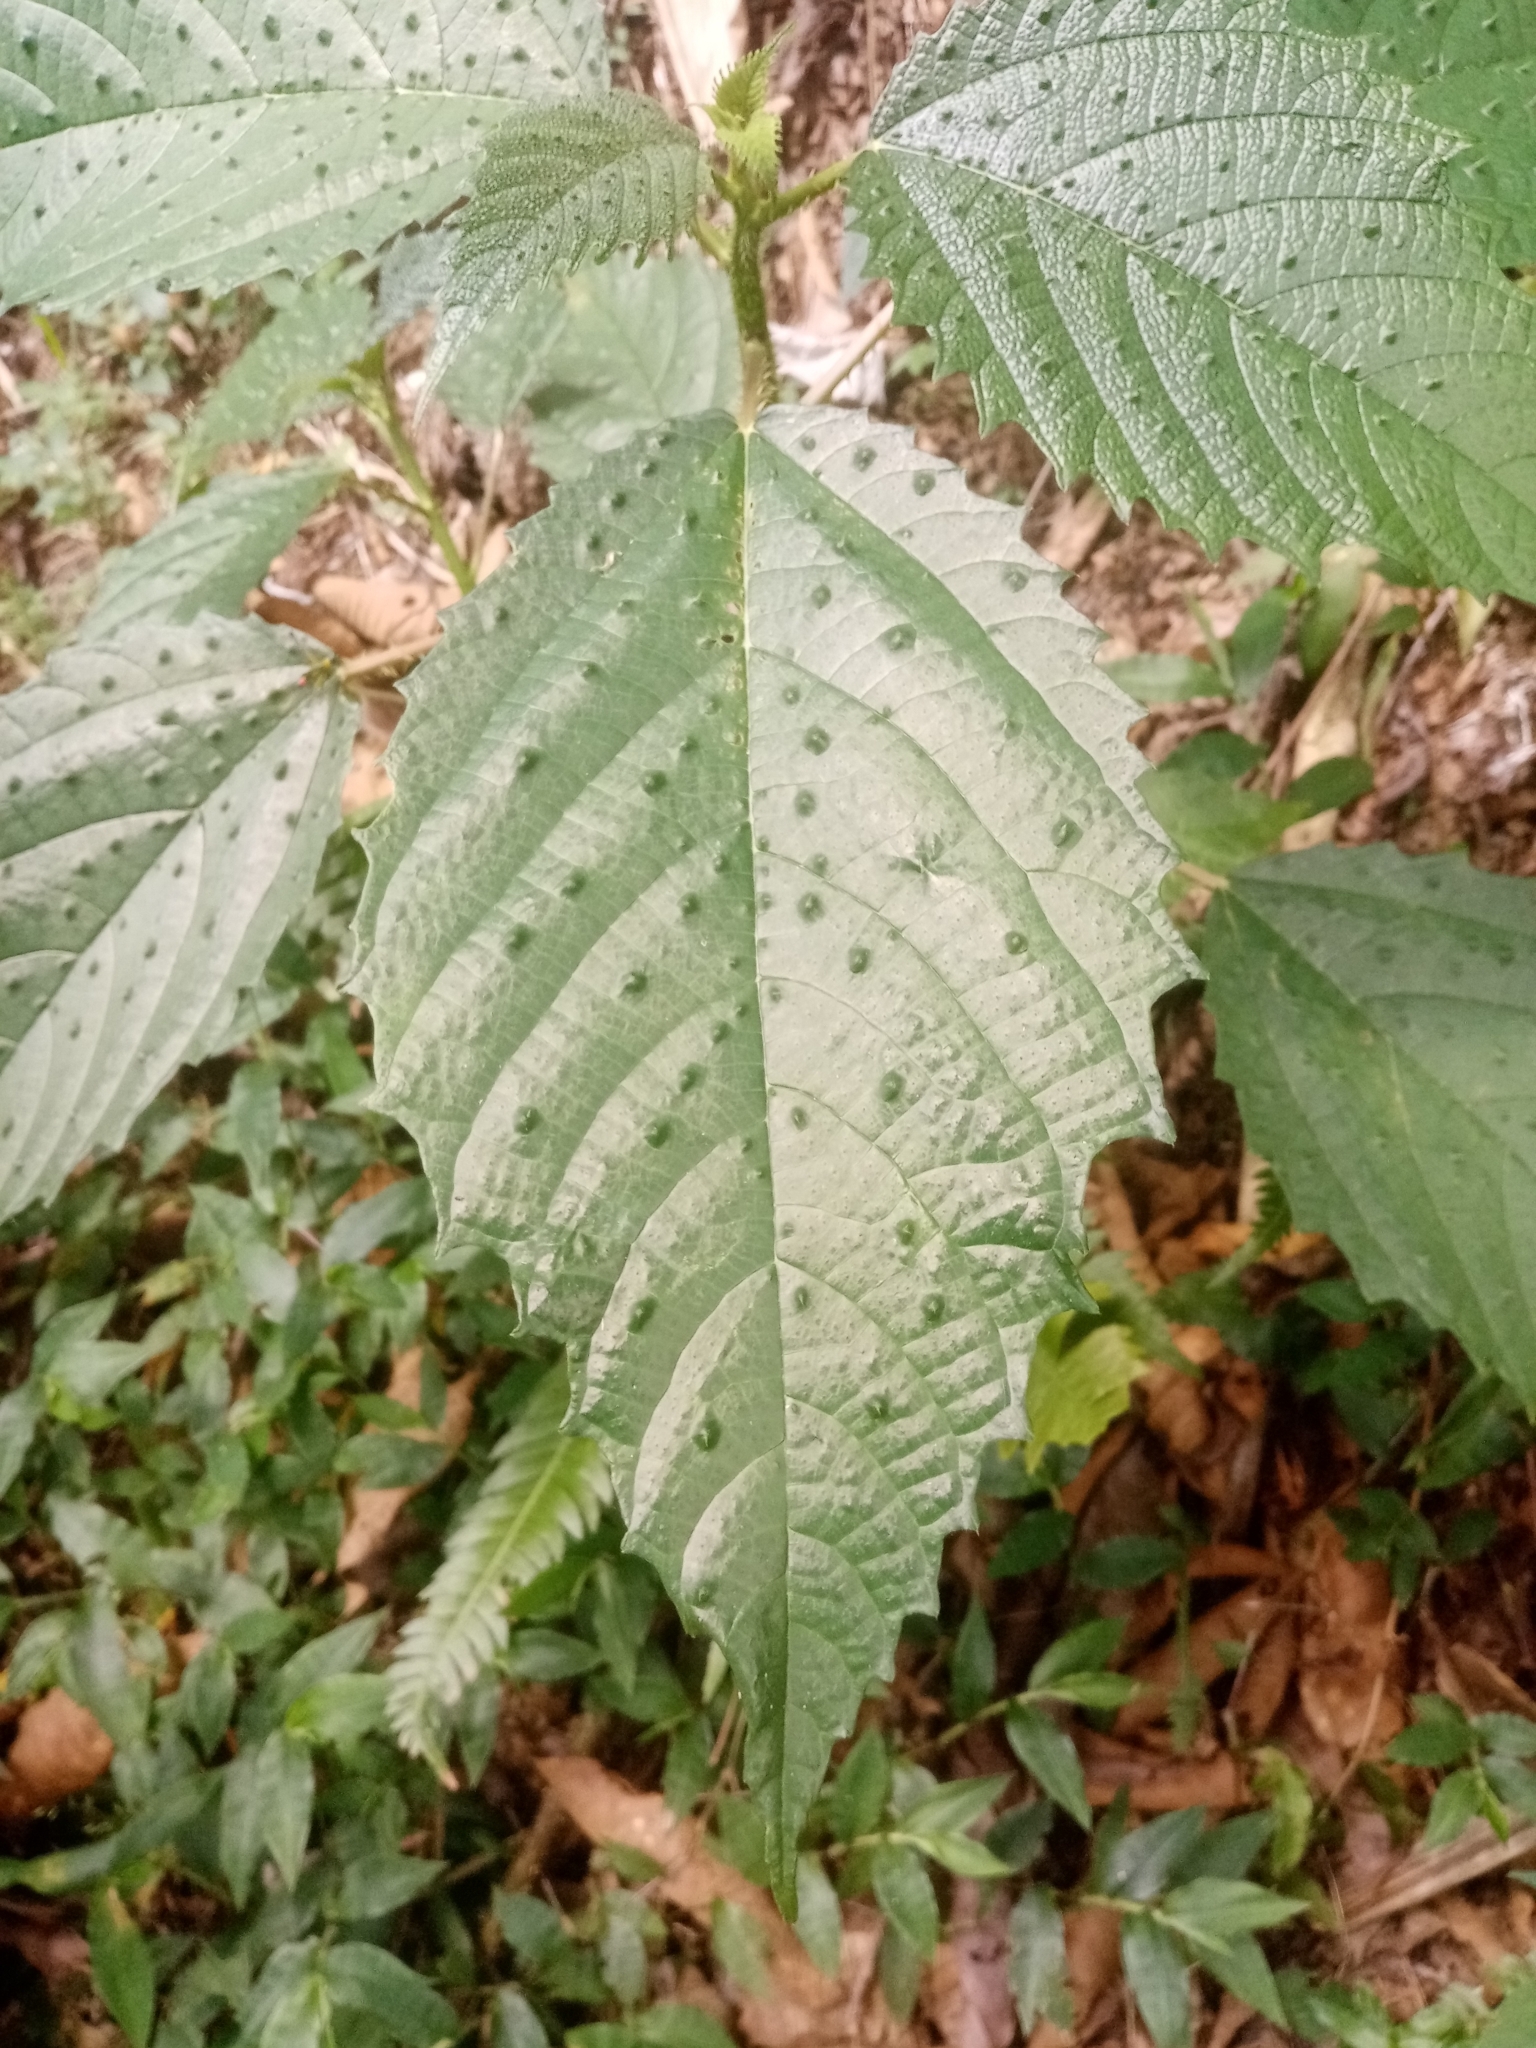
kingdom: Plantae
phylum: Tracheophyta
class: Magnoliopsida
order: Rosales
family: Urticaceae
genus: Urera
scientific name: Urera baccifera
